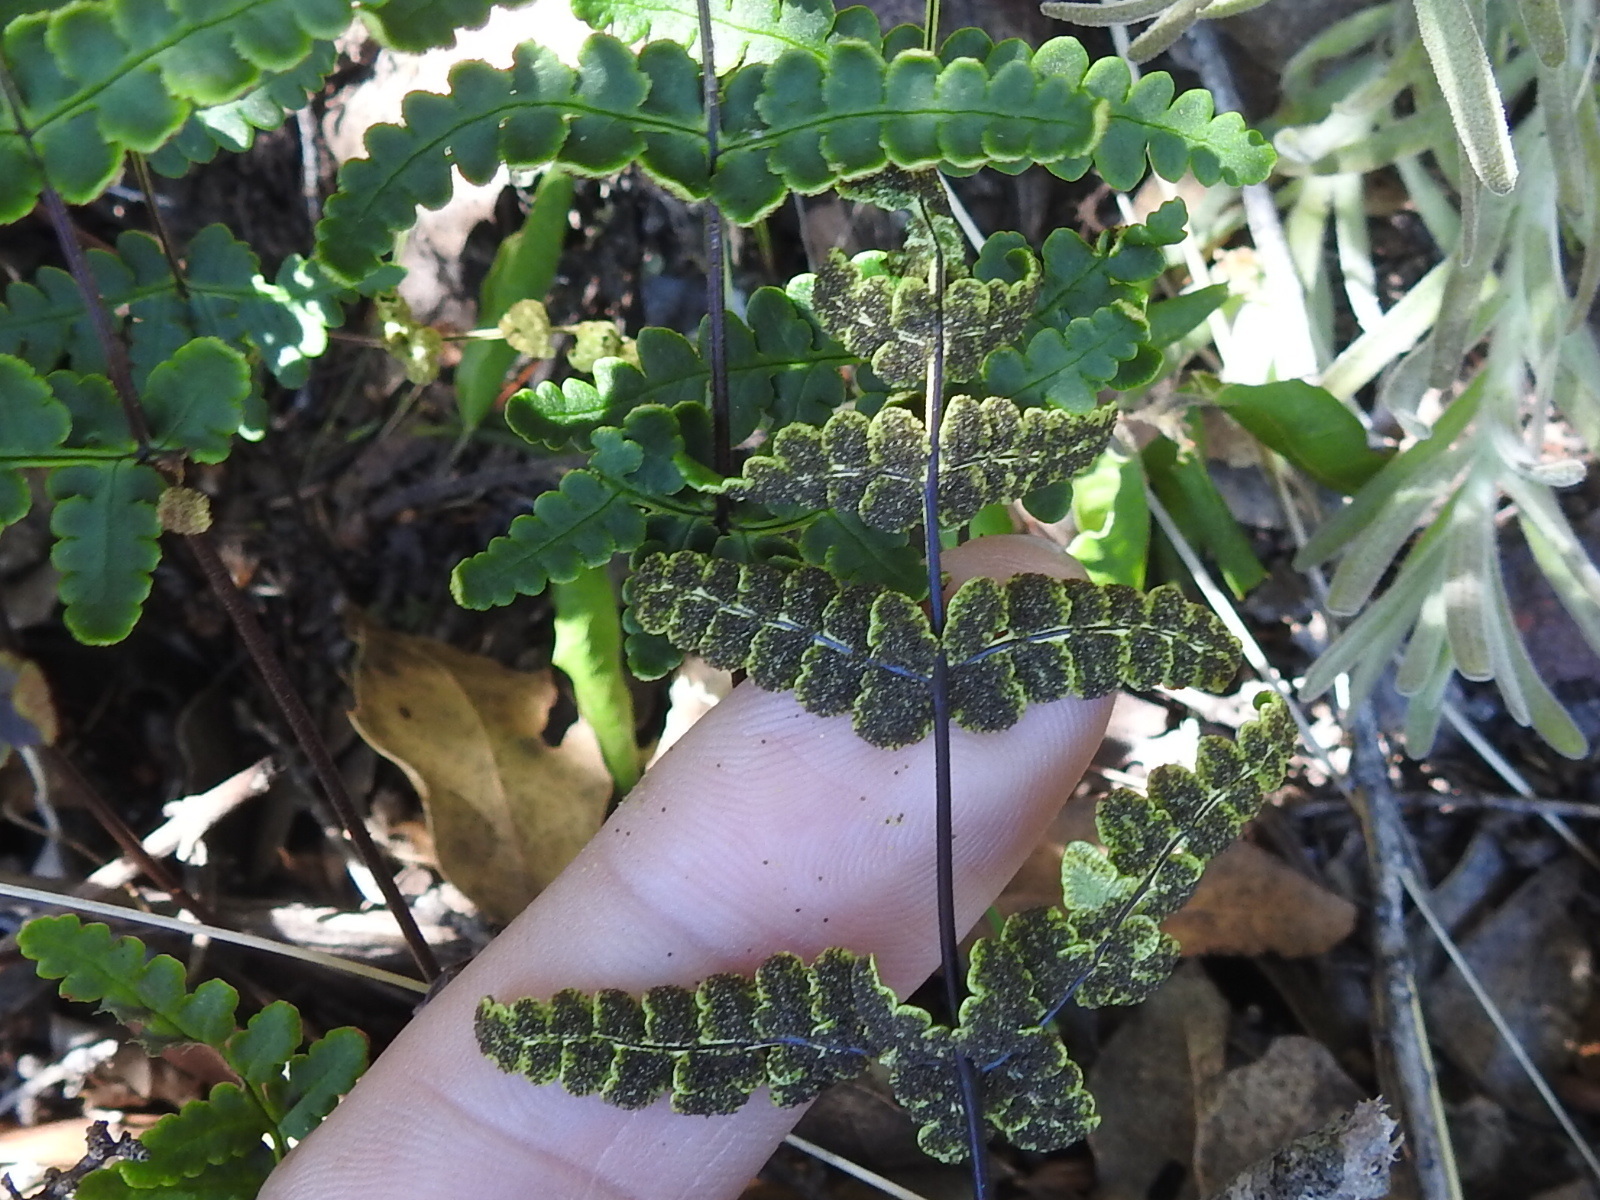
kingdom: Plantae
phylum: Tracheophyta
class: Polypodiopsida
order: Polypodiales
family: Pteridaceae
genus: Pentagramma
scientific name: Pentagramma triangularis
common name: Gold fern
